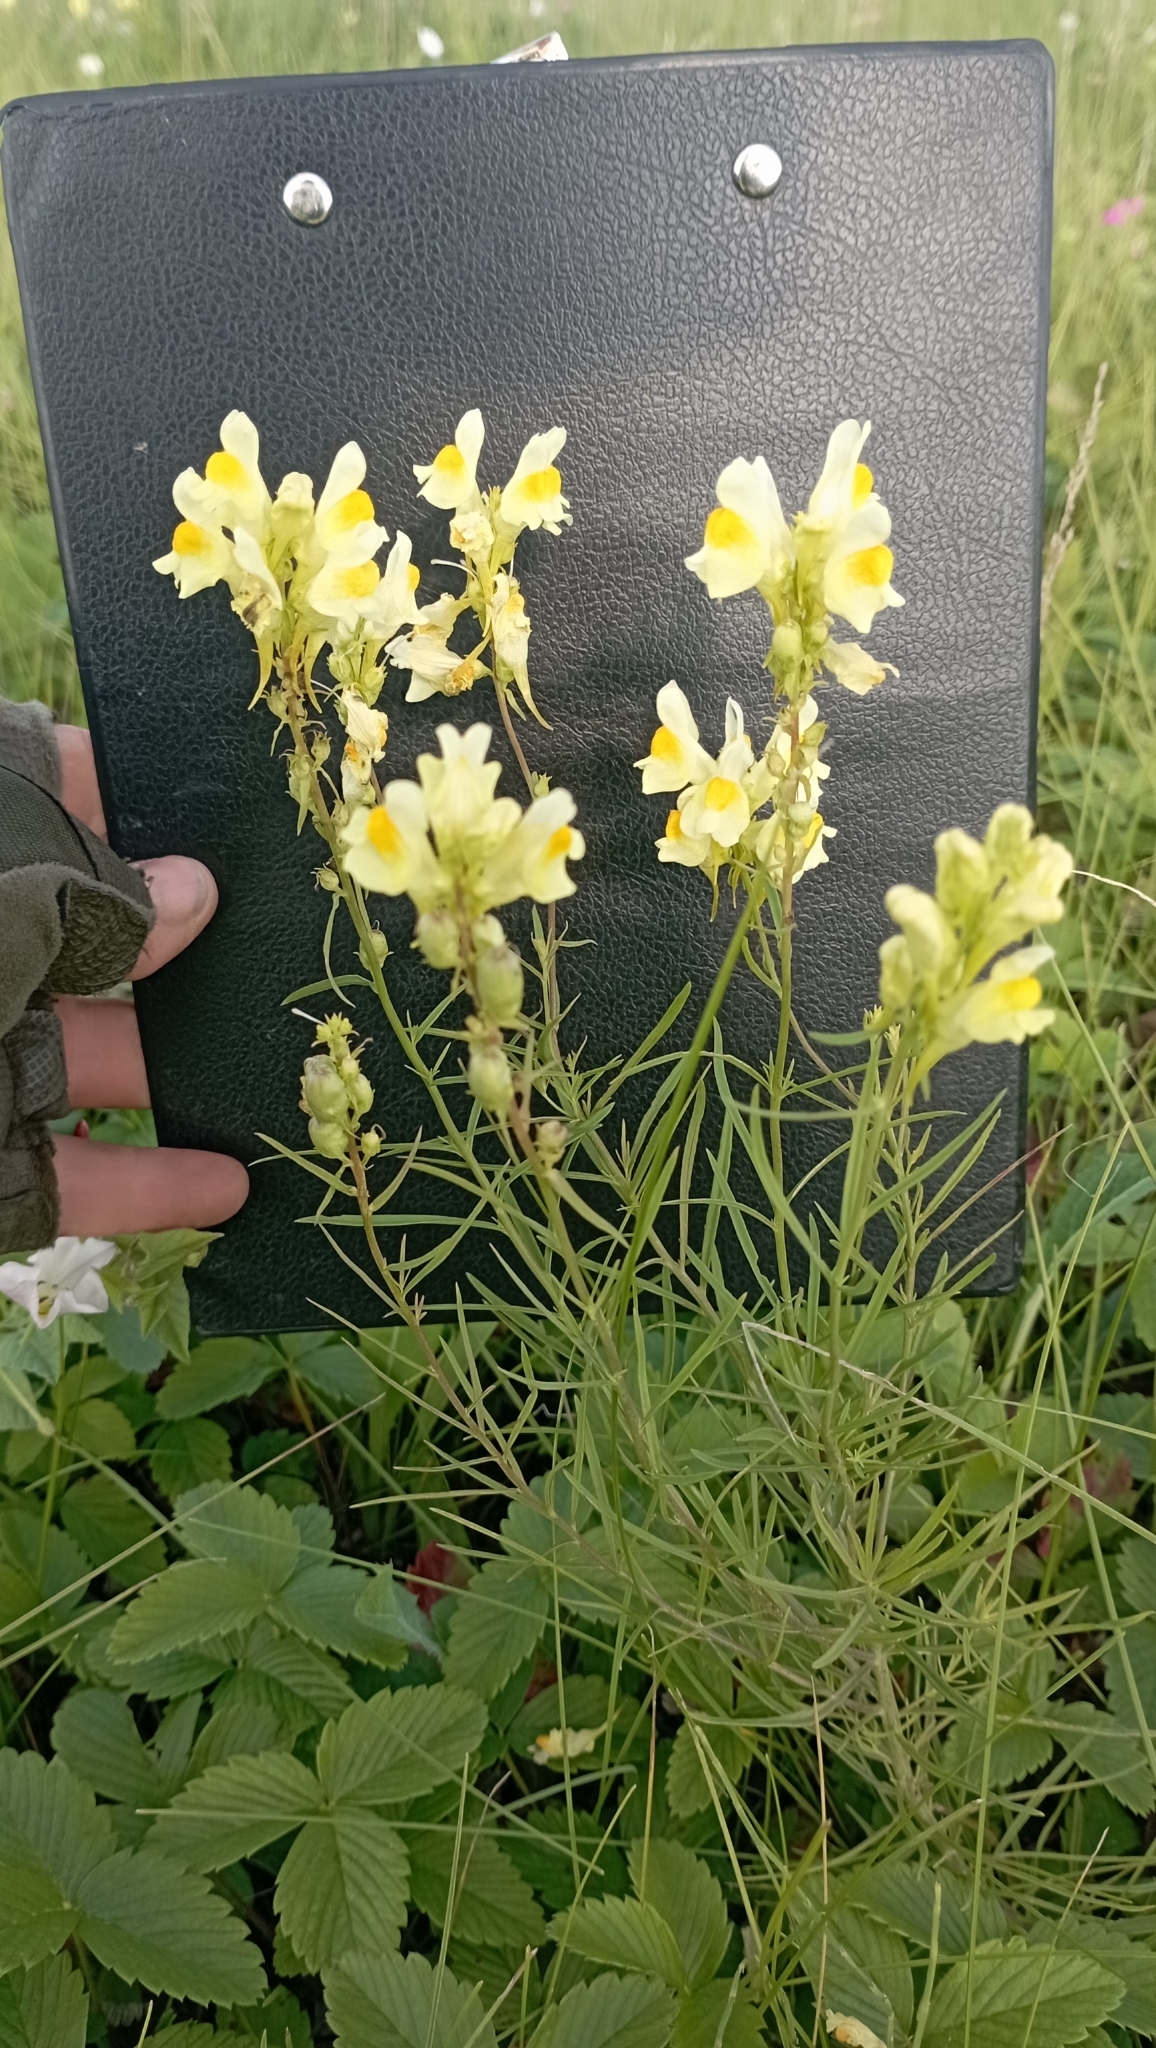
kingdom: Plantae
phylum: Tracheophyta
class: Magnoliopsida
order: Lamiales
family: Plantaginaceae
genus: Linaria
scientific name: Linaria vulgaris
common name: Butter and eggs
